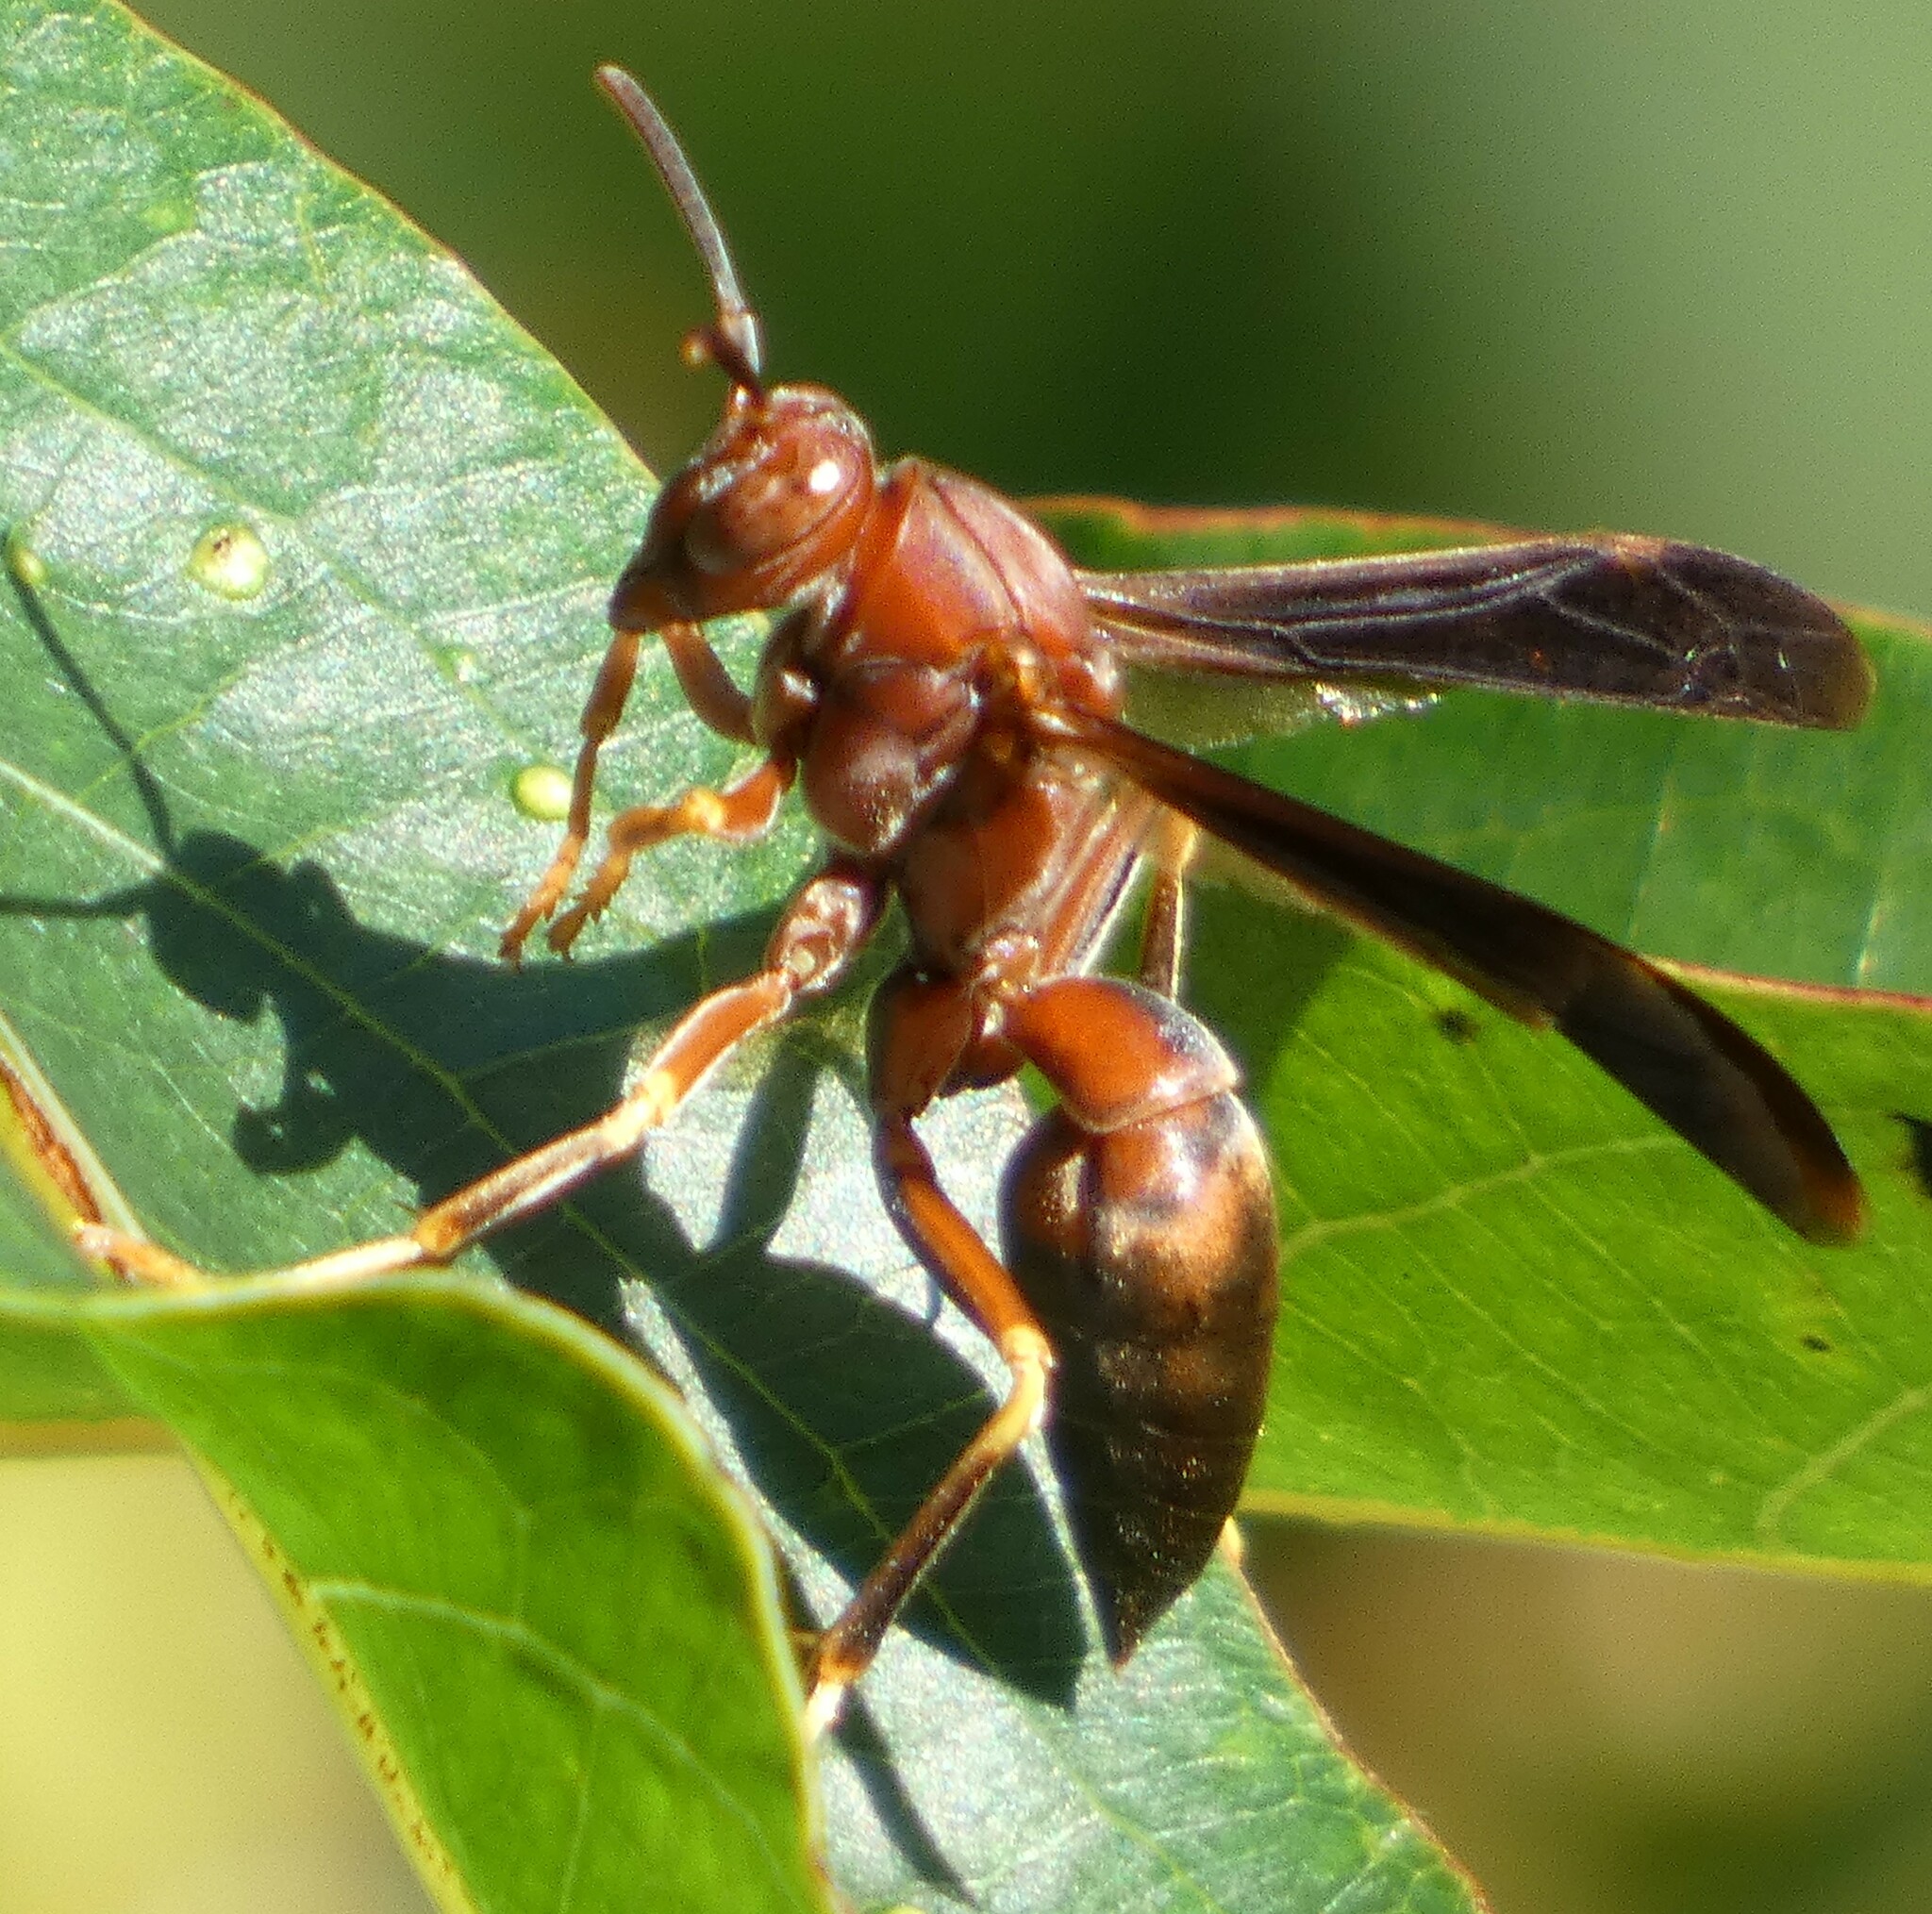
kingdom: Animalia
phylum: Arthropoda
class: Insecta
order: Hymenoptera
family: Eumenidae
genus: Polistes
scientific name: Polistes metricus
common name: Metric paper wasp
